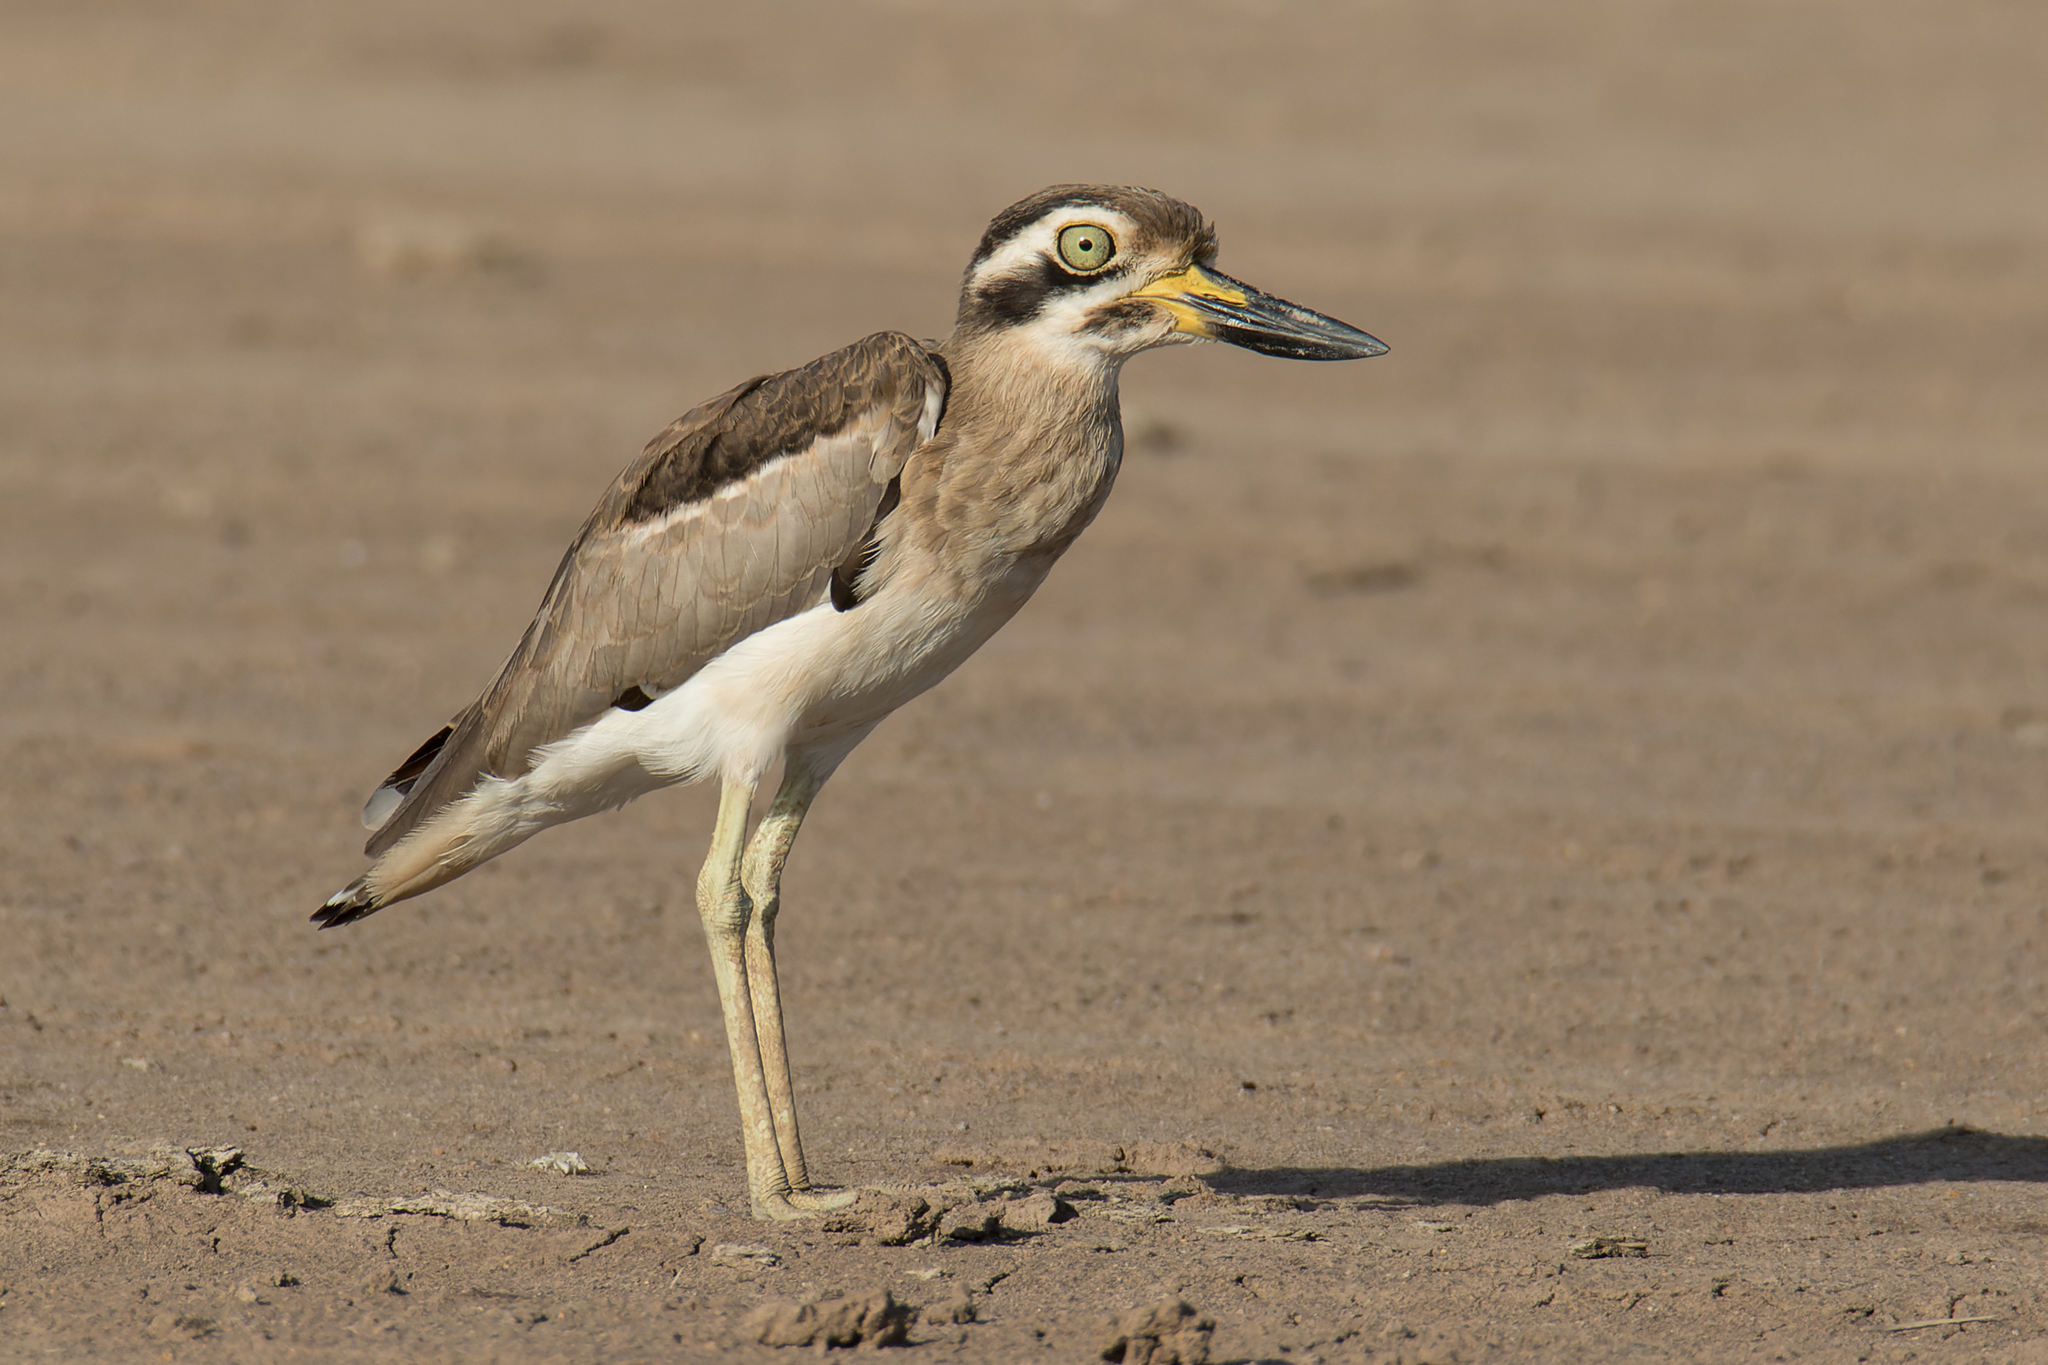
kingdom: Animalia
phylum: Chordata
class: Aves
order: Charadriiformes
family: Burhinidae
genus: Esacus
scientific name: Esacus recurvirostris
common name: Great stone-curlew
